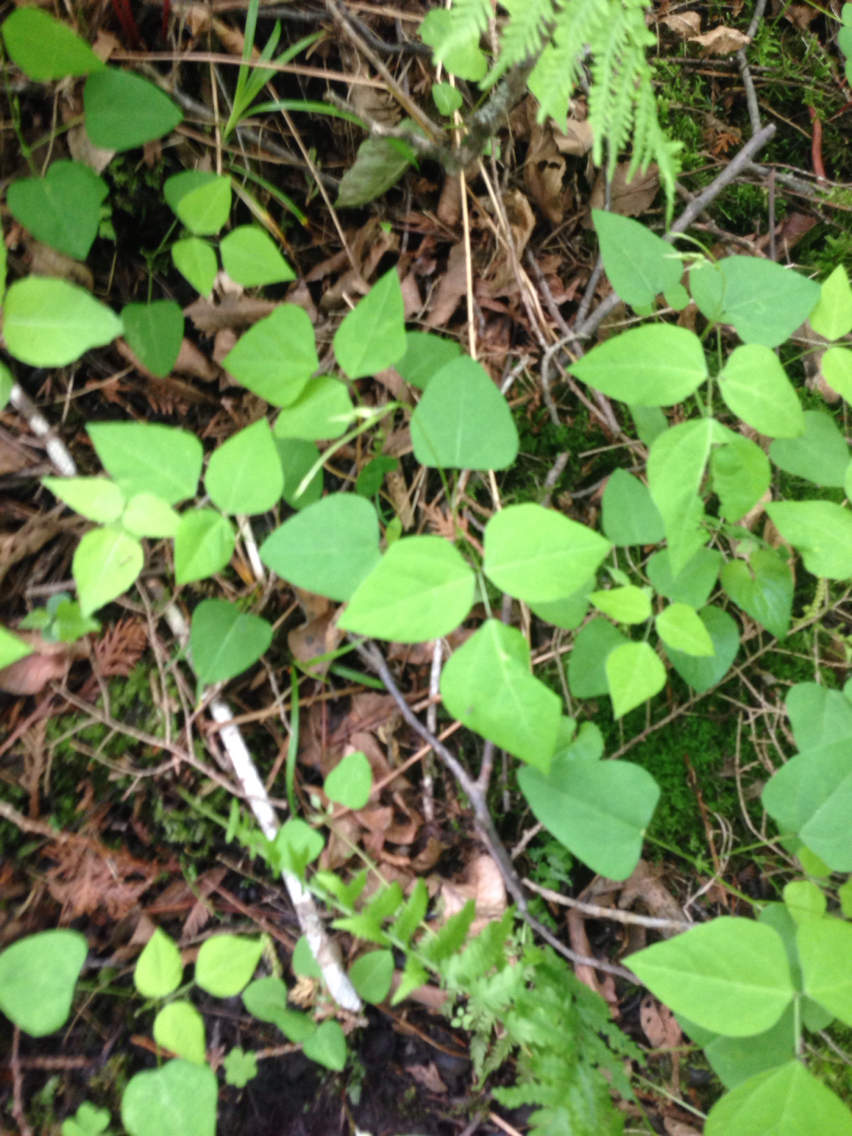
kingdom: Plantae
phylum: Tracheophyta
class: Magnoliopsida
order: Fabales
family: Fabaceae
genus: Amphicarpaea
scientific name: Amphicarpaea bracteata
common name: American hog peanut
